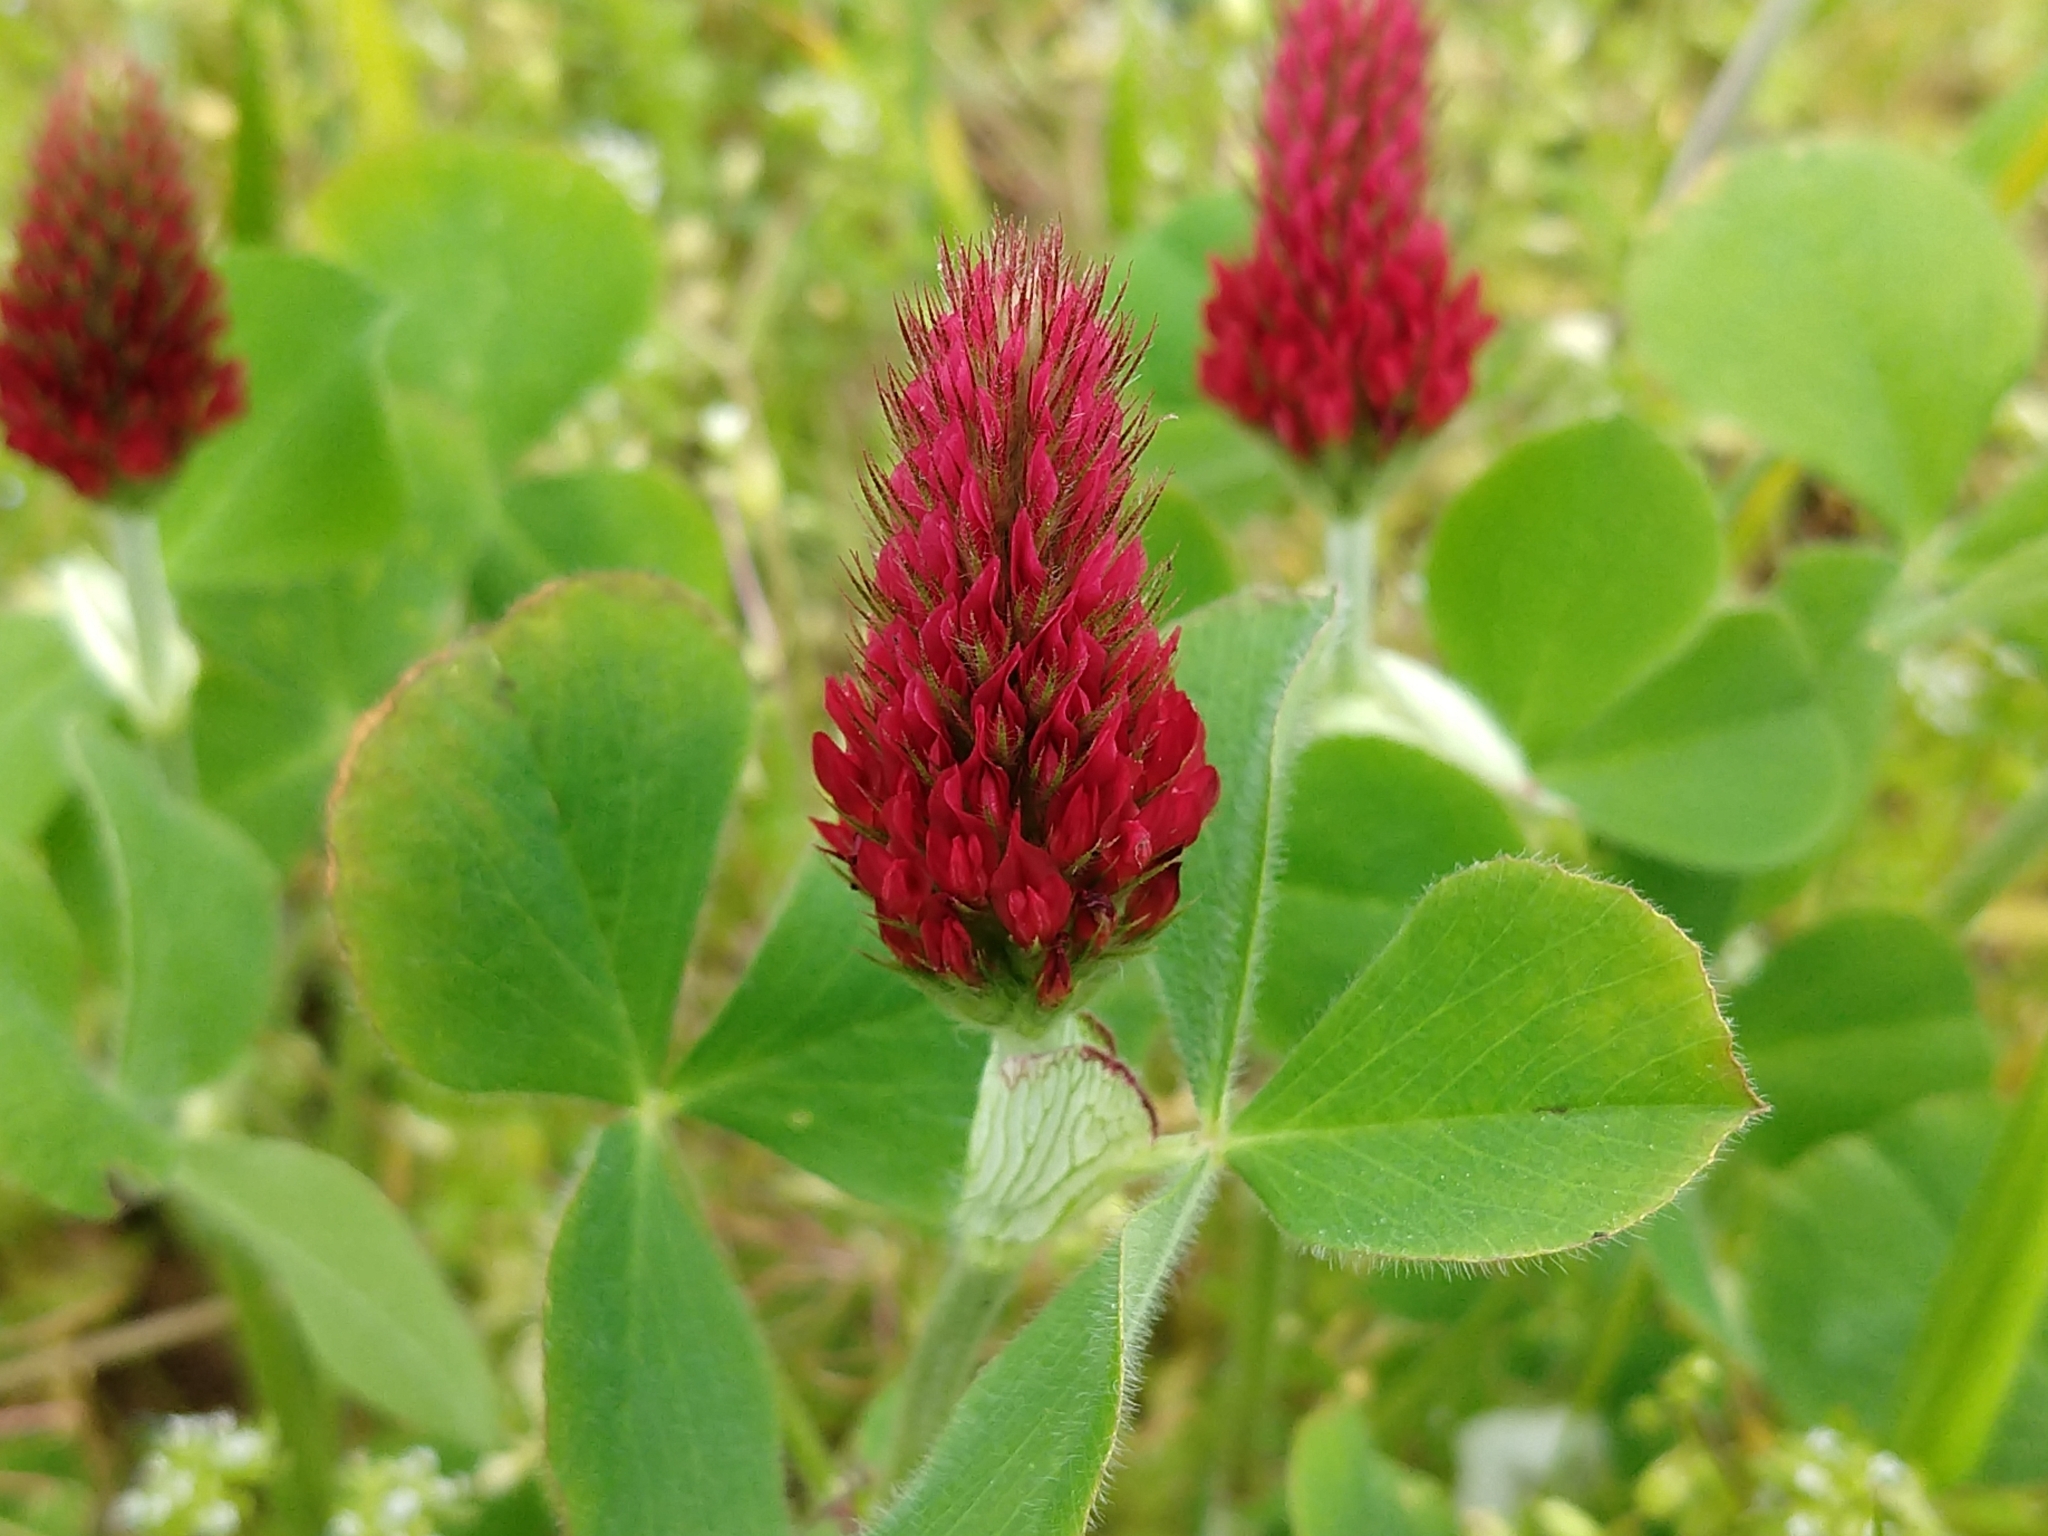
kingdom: Plantae
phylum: Tracheophyta
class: Magnoliopsida
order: Fabales
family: Fabaceae
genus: Trifolium
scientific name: Trifolium incarnatum
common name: Crimson clover
